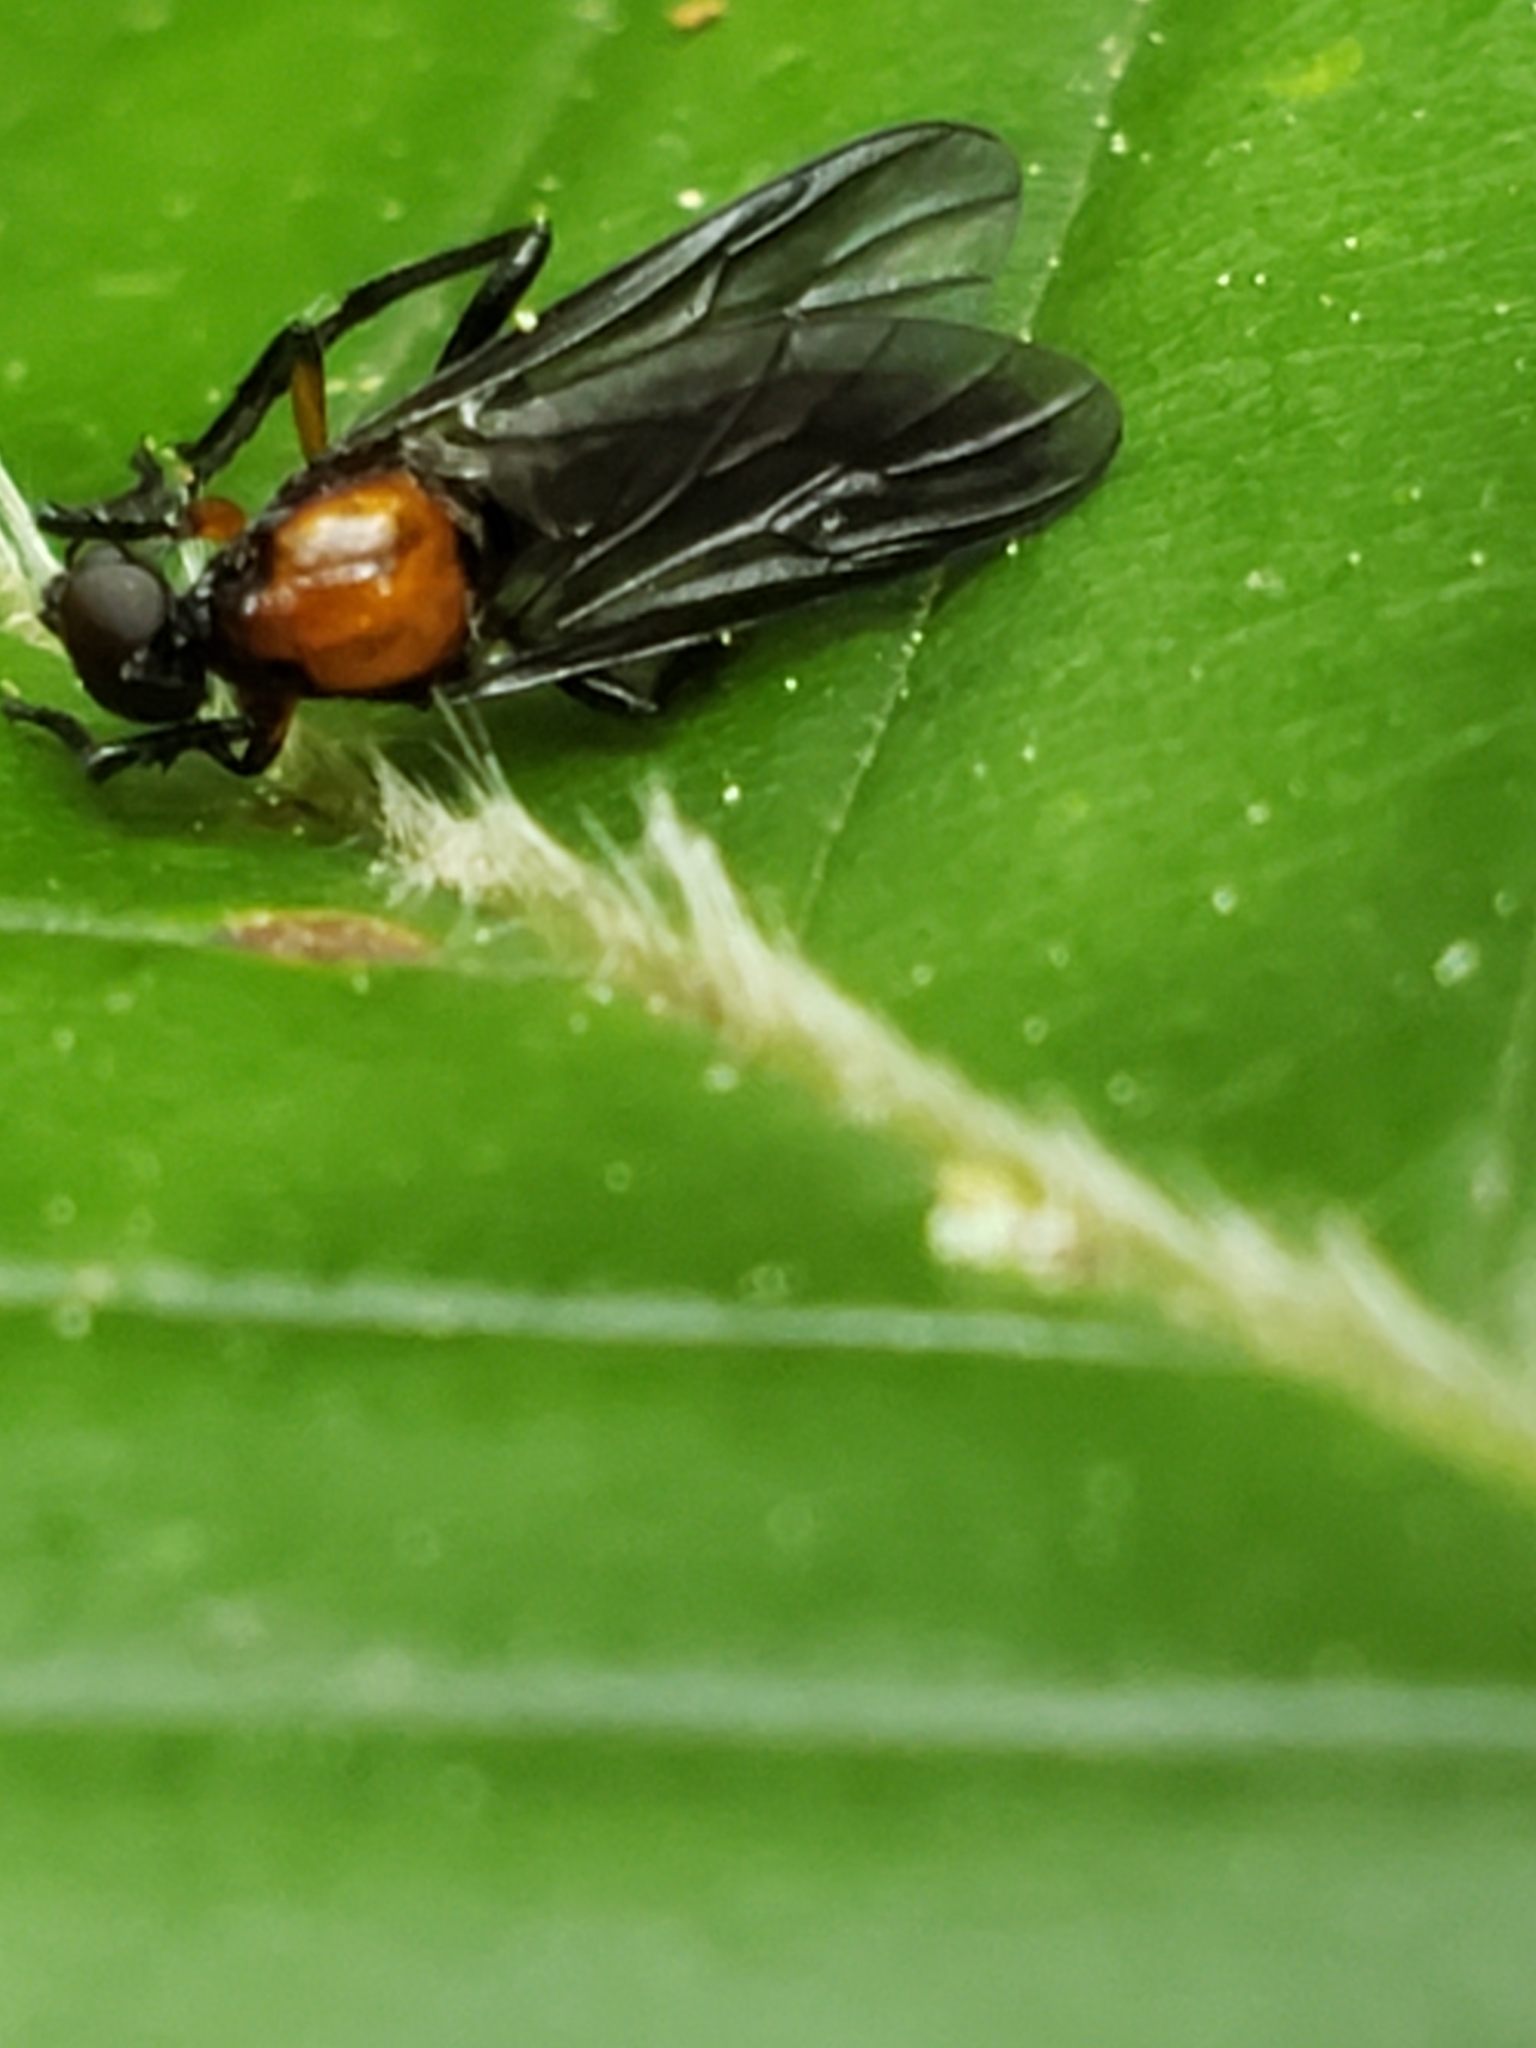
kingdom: Animalia
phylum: Arthropoda
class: Insecta
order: Diptera
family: Bibionidae
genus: Dilophus
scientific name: Dilophus spinipes
